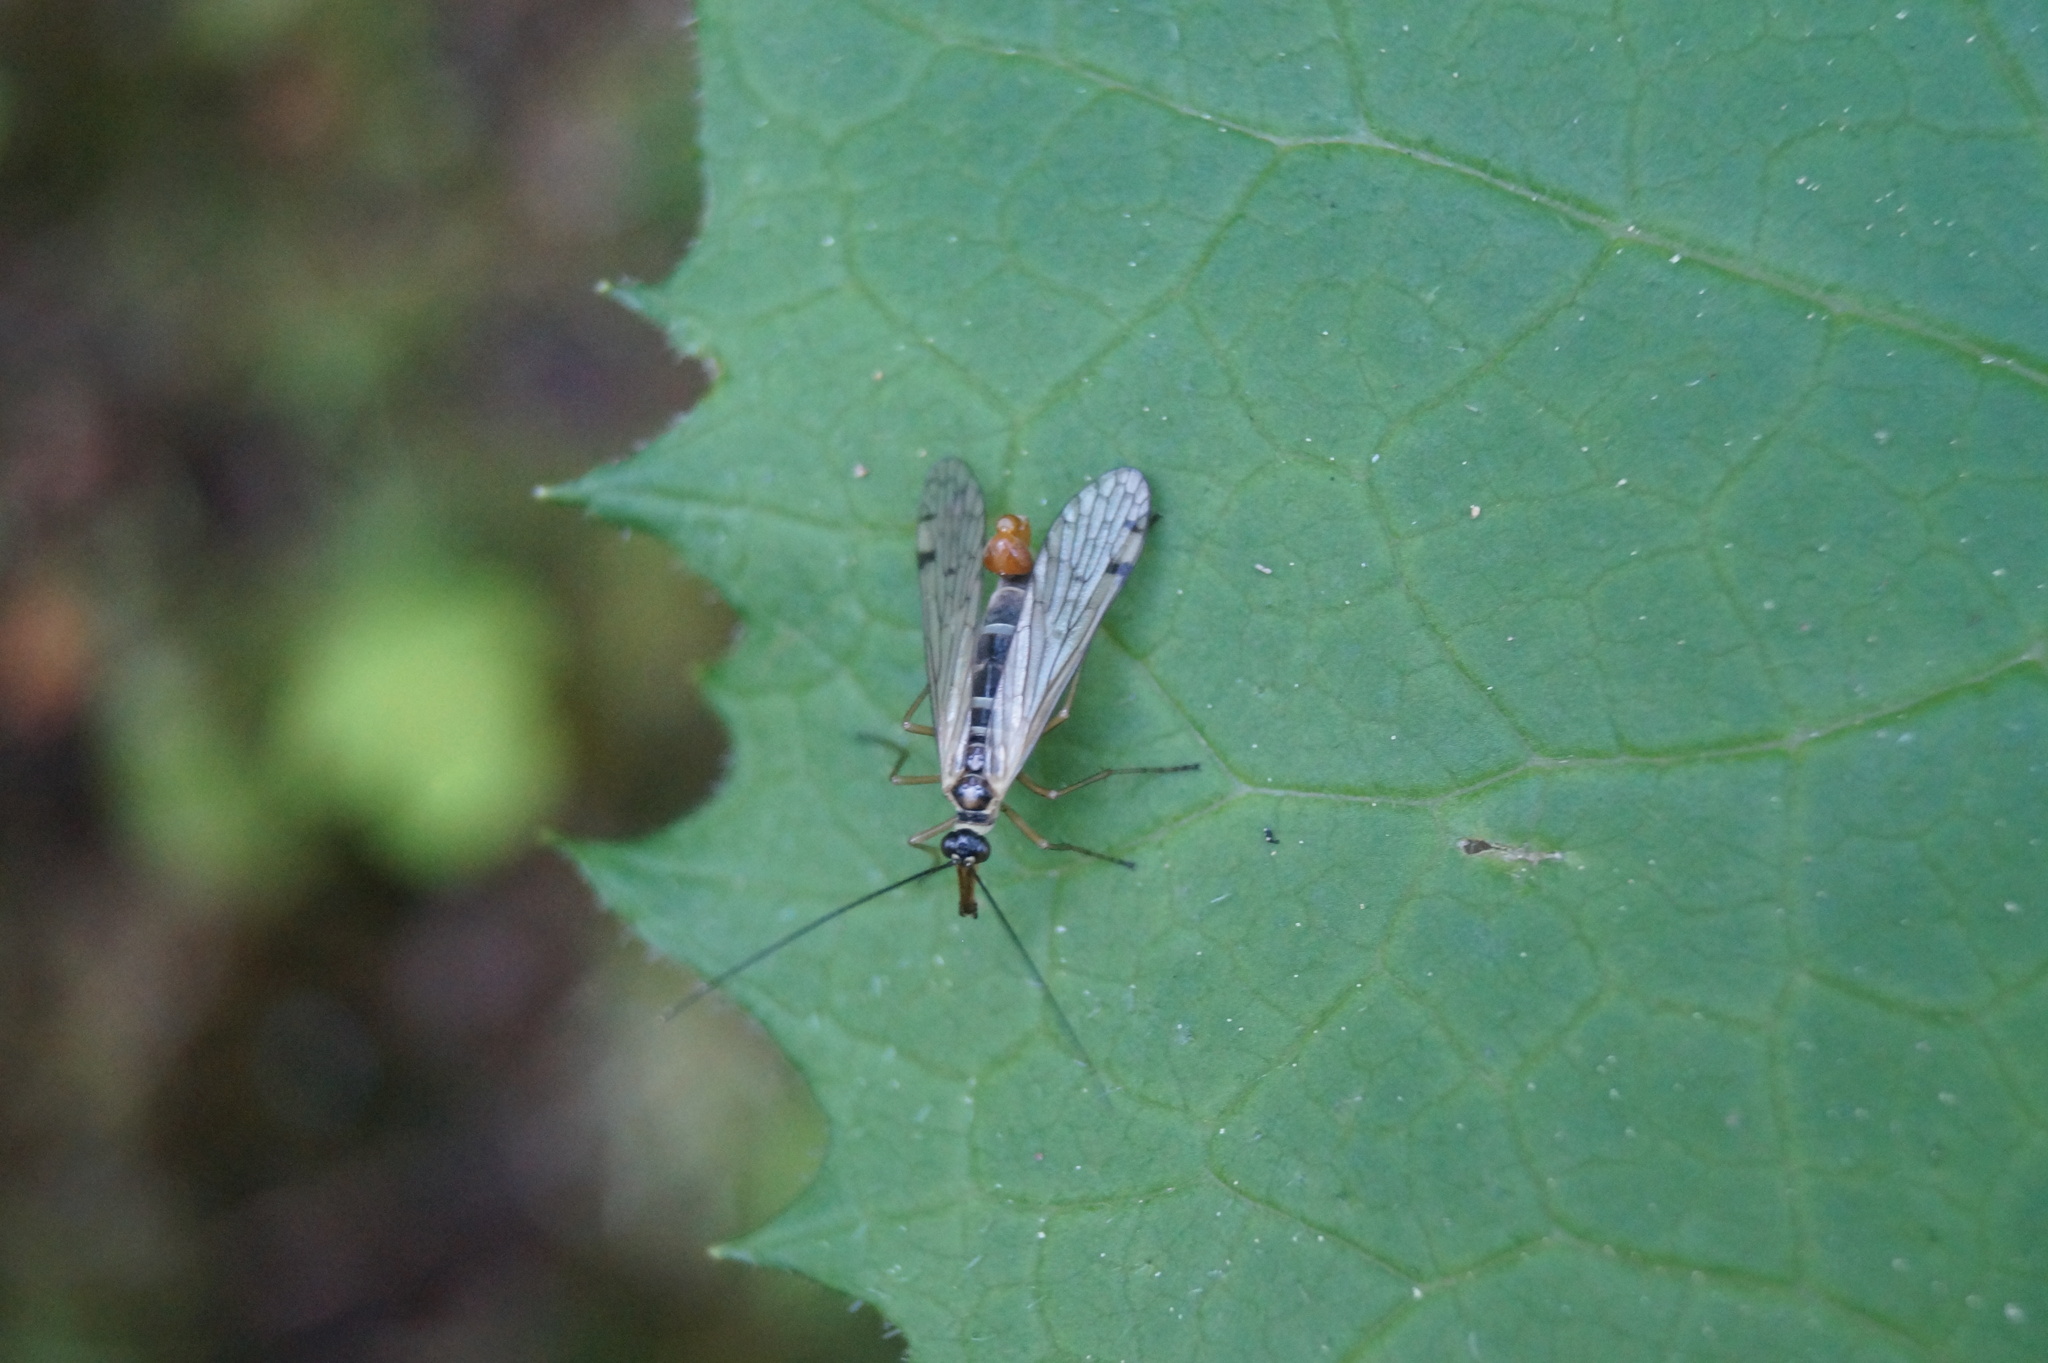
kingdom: Animalia
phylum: Arthropoda
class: Insecta
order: Mecoptera
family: Panorpidae
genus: Panorpa
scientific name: Panorpa alpina
